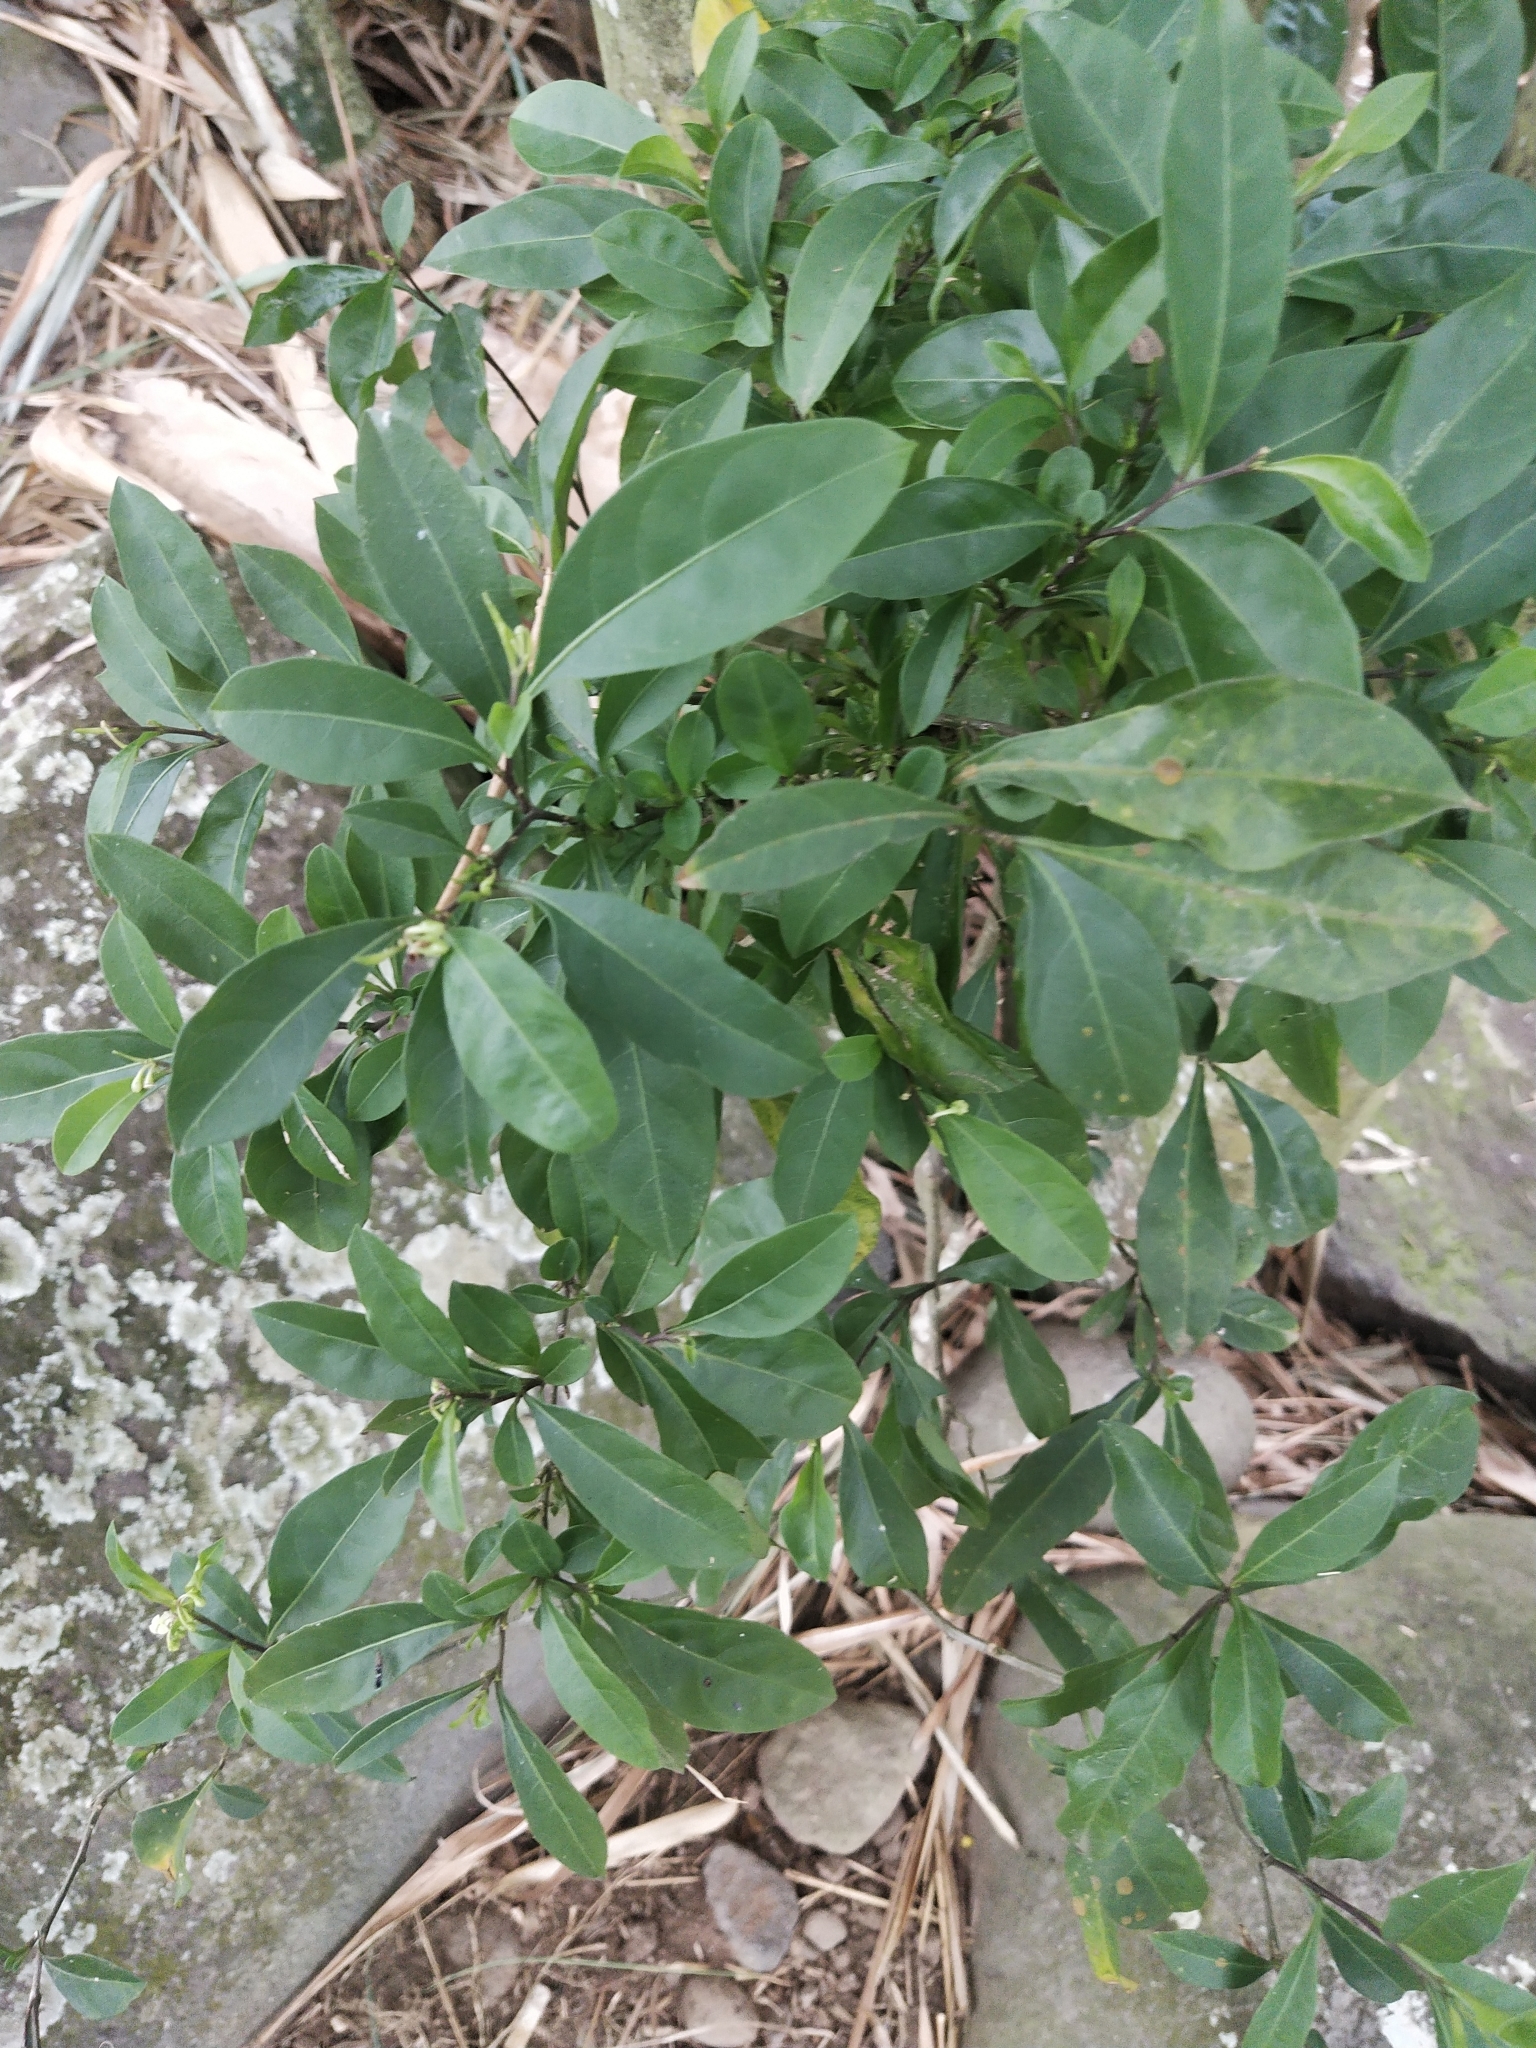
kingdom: Plantae
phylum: Tracheophyta
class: Magnoliopsida
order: Solanales
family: Solanaceae
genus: Solanum
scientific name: Solanum diphyllum
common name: Twoleaf nightshade
